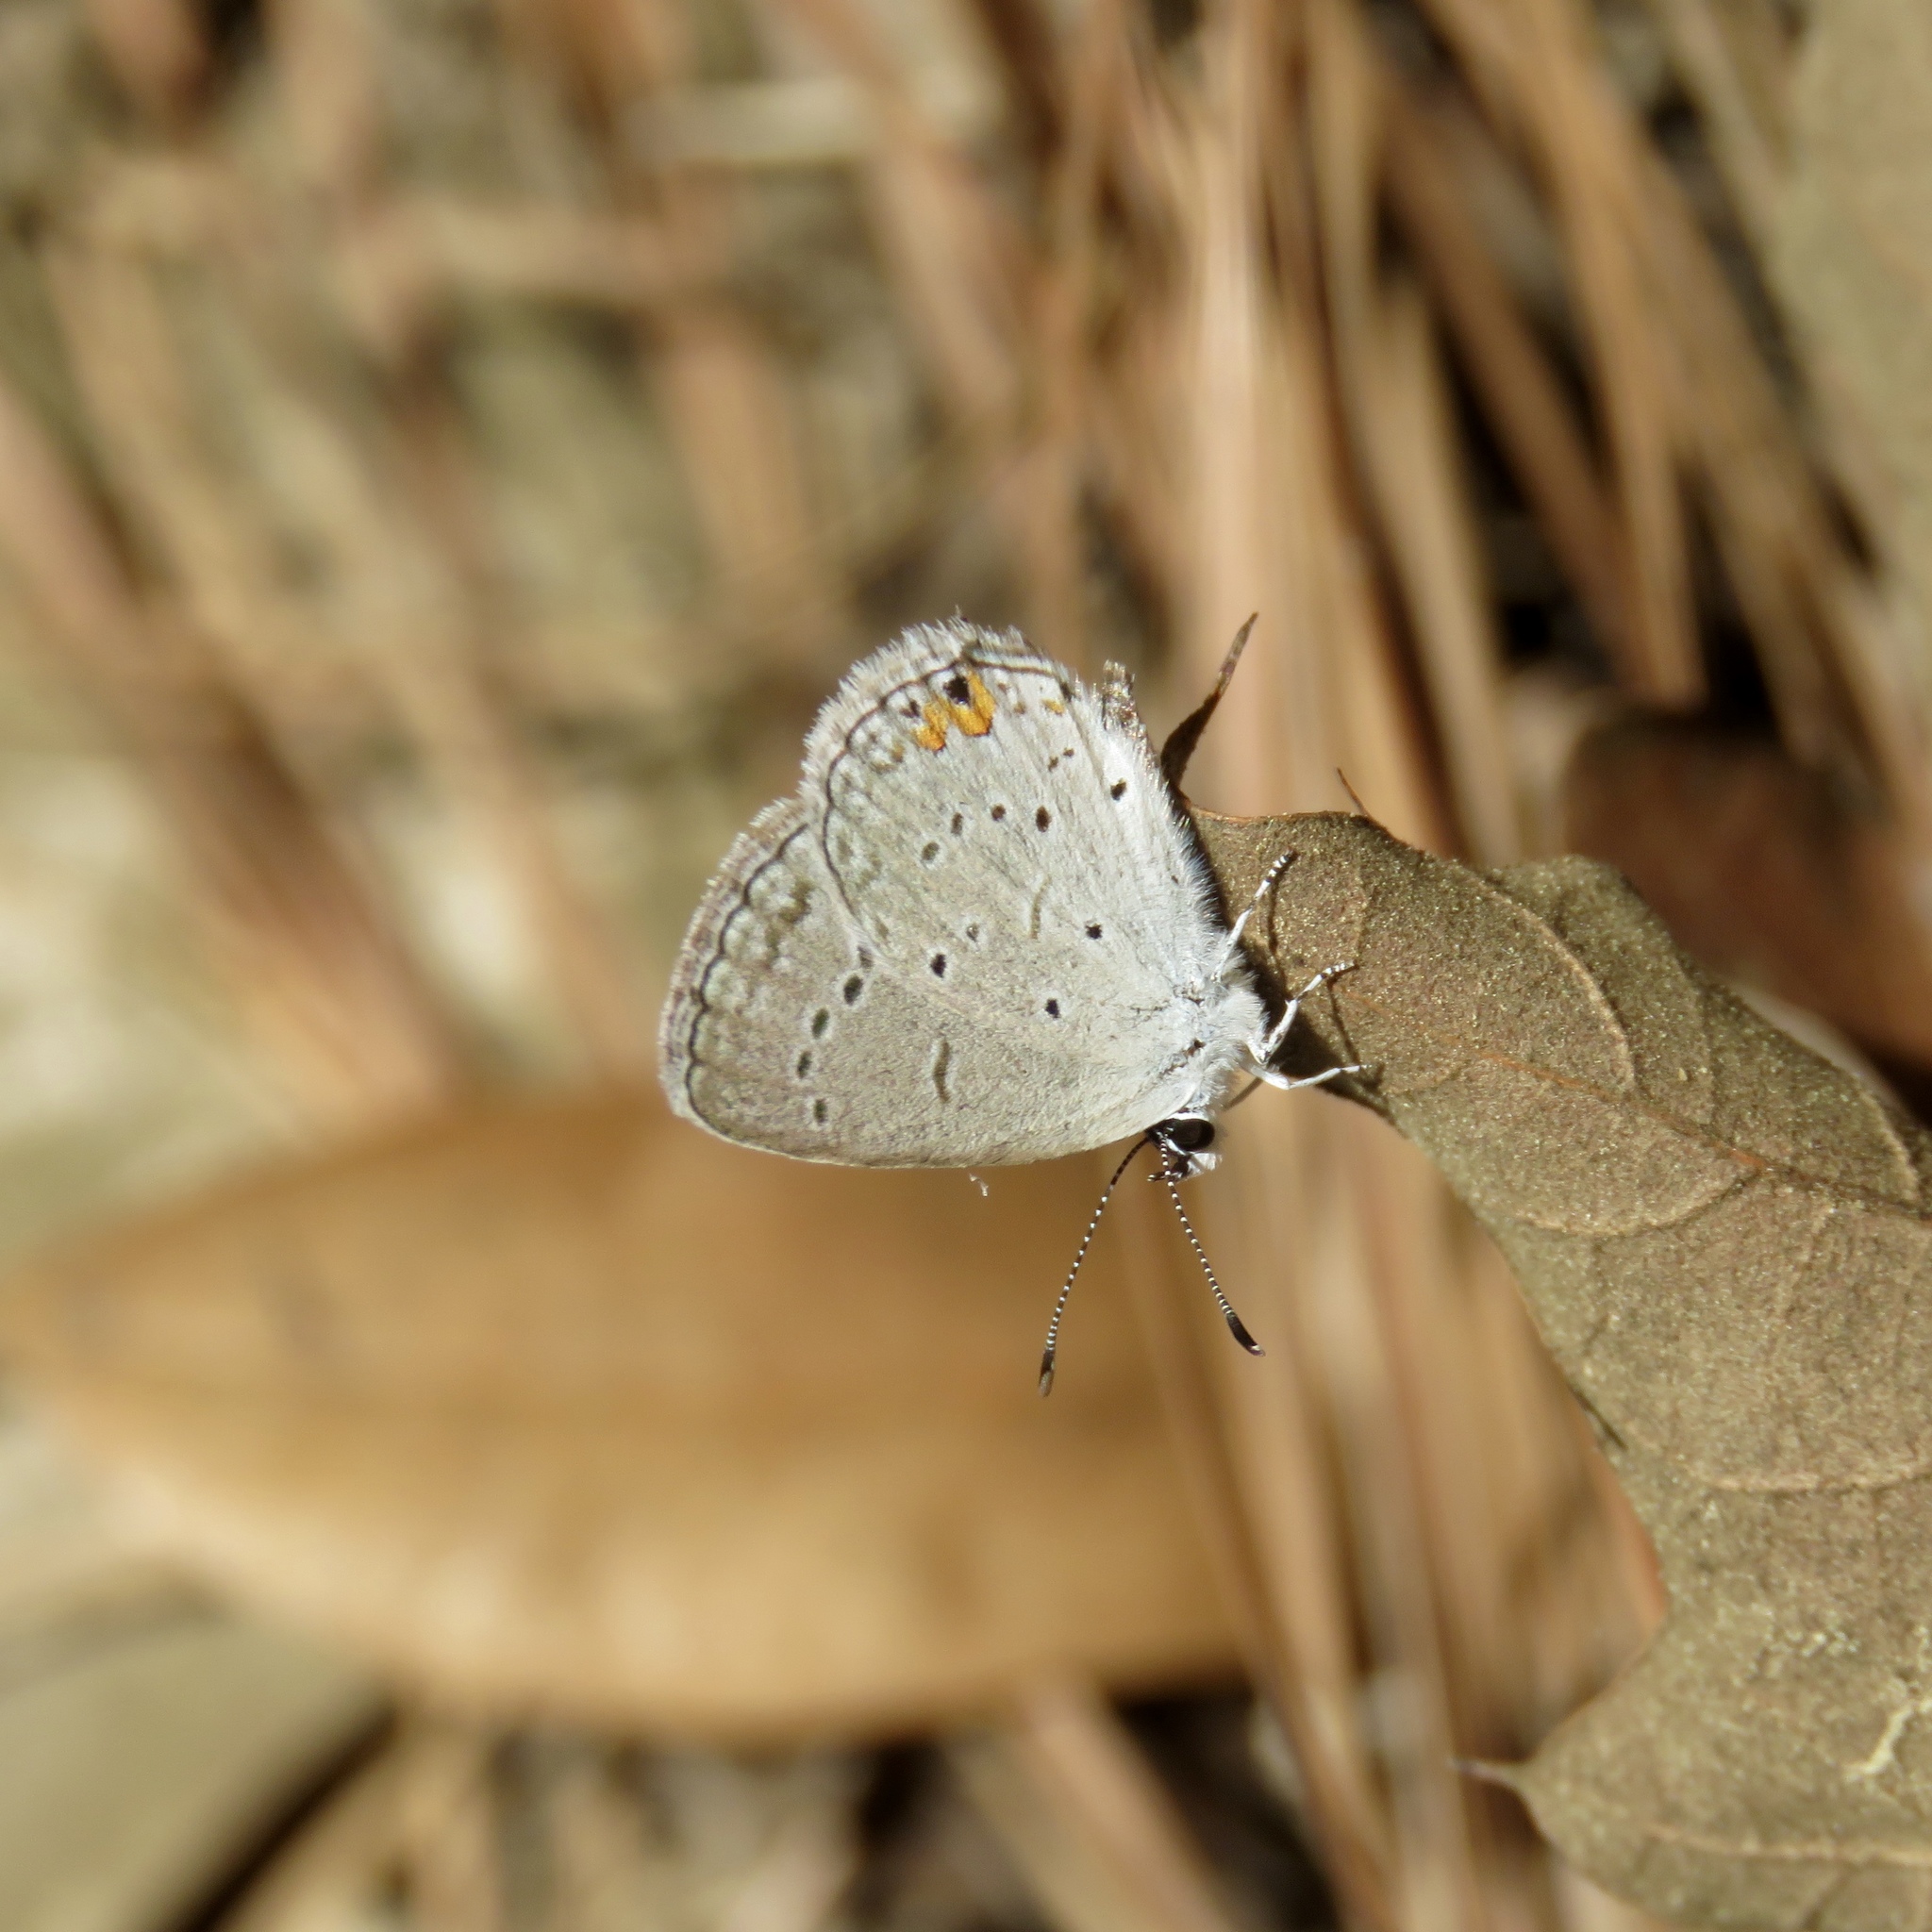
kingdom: Animalia
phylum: Arthropoda
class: Insecta
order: Lepidoptera
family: Lycaenidae
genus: Elkalyce
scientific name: Elkalyce comyntas
